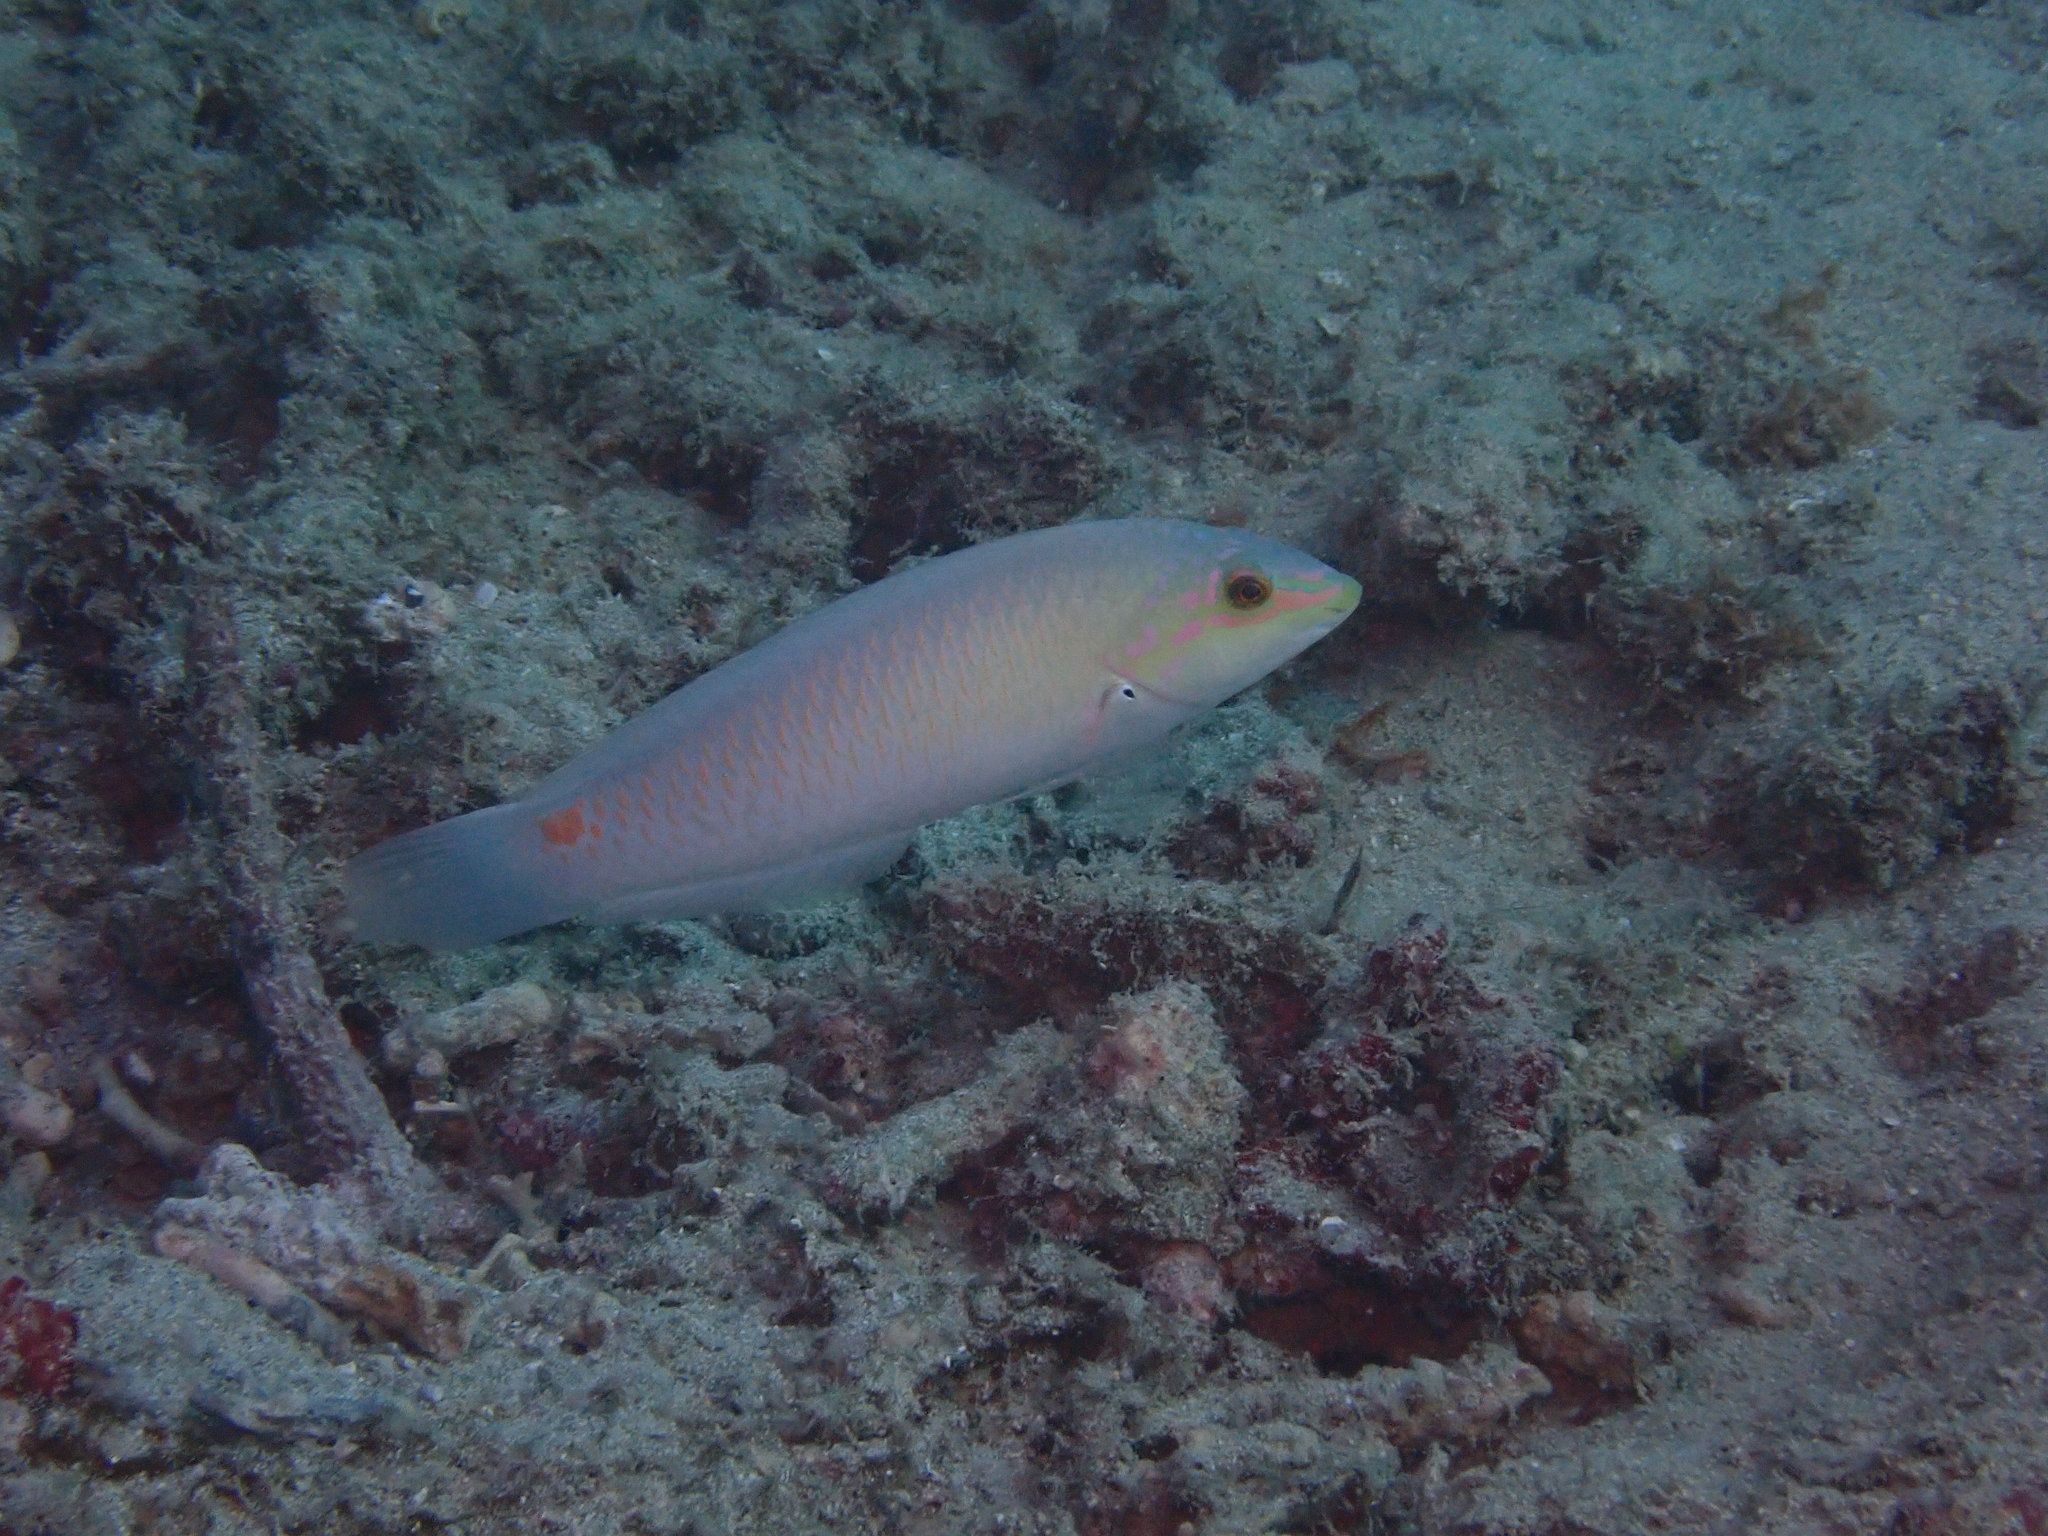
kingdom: Animalia
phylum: Chordata
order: Perciformes
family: Labridae
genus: Halichoeres
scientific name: Halichoeres trimaculatus
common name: Three-spot wrasse
